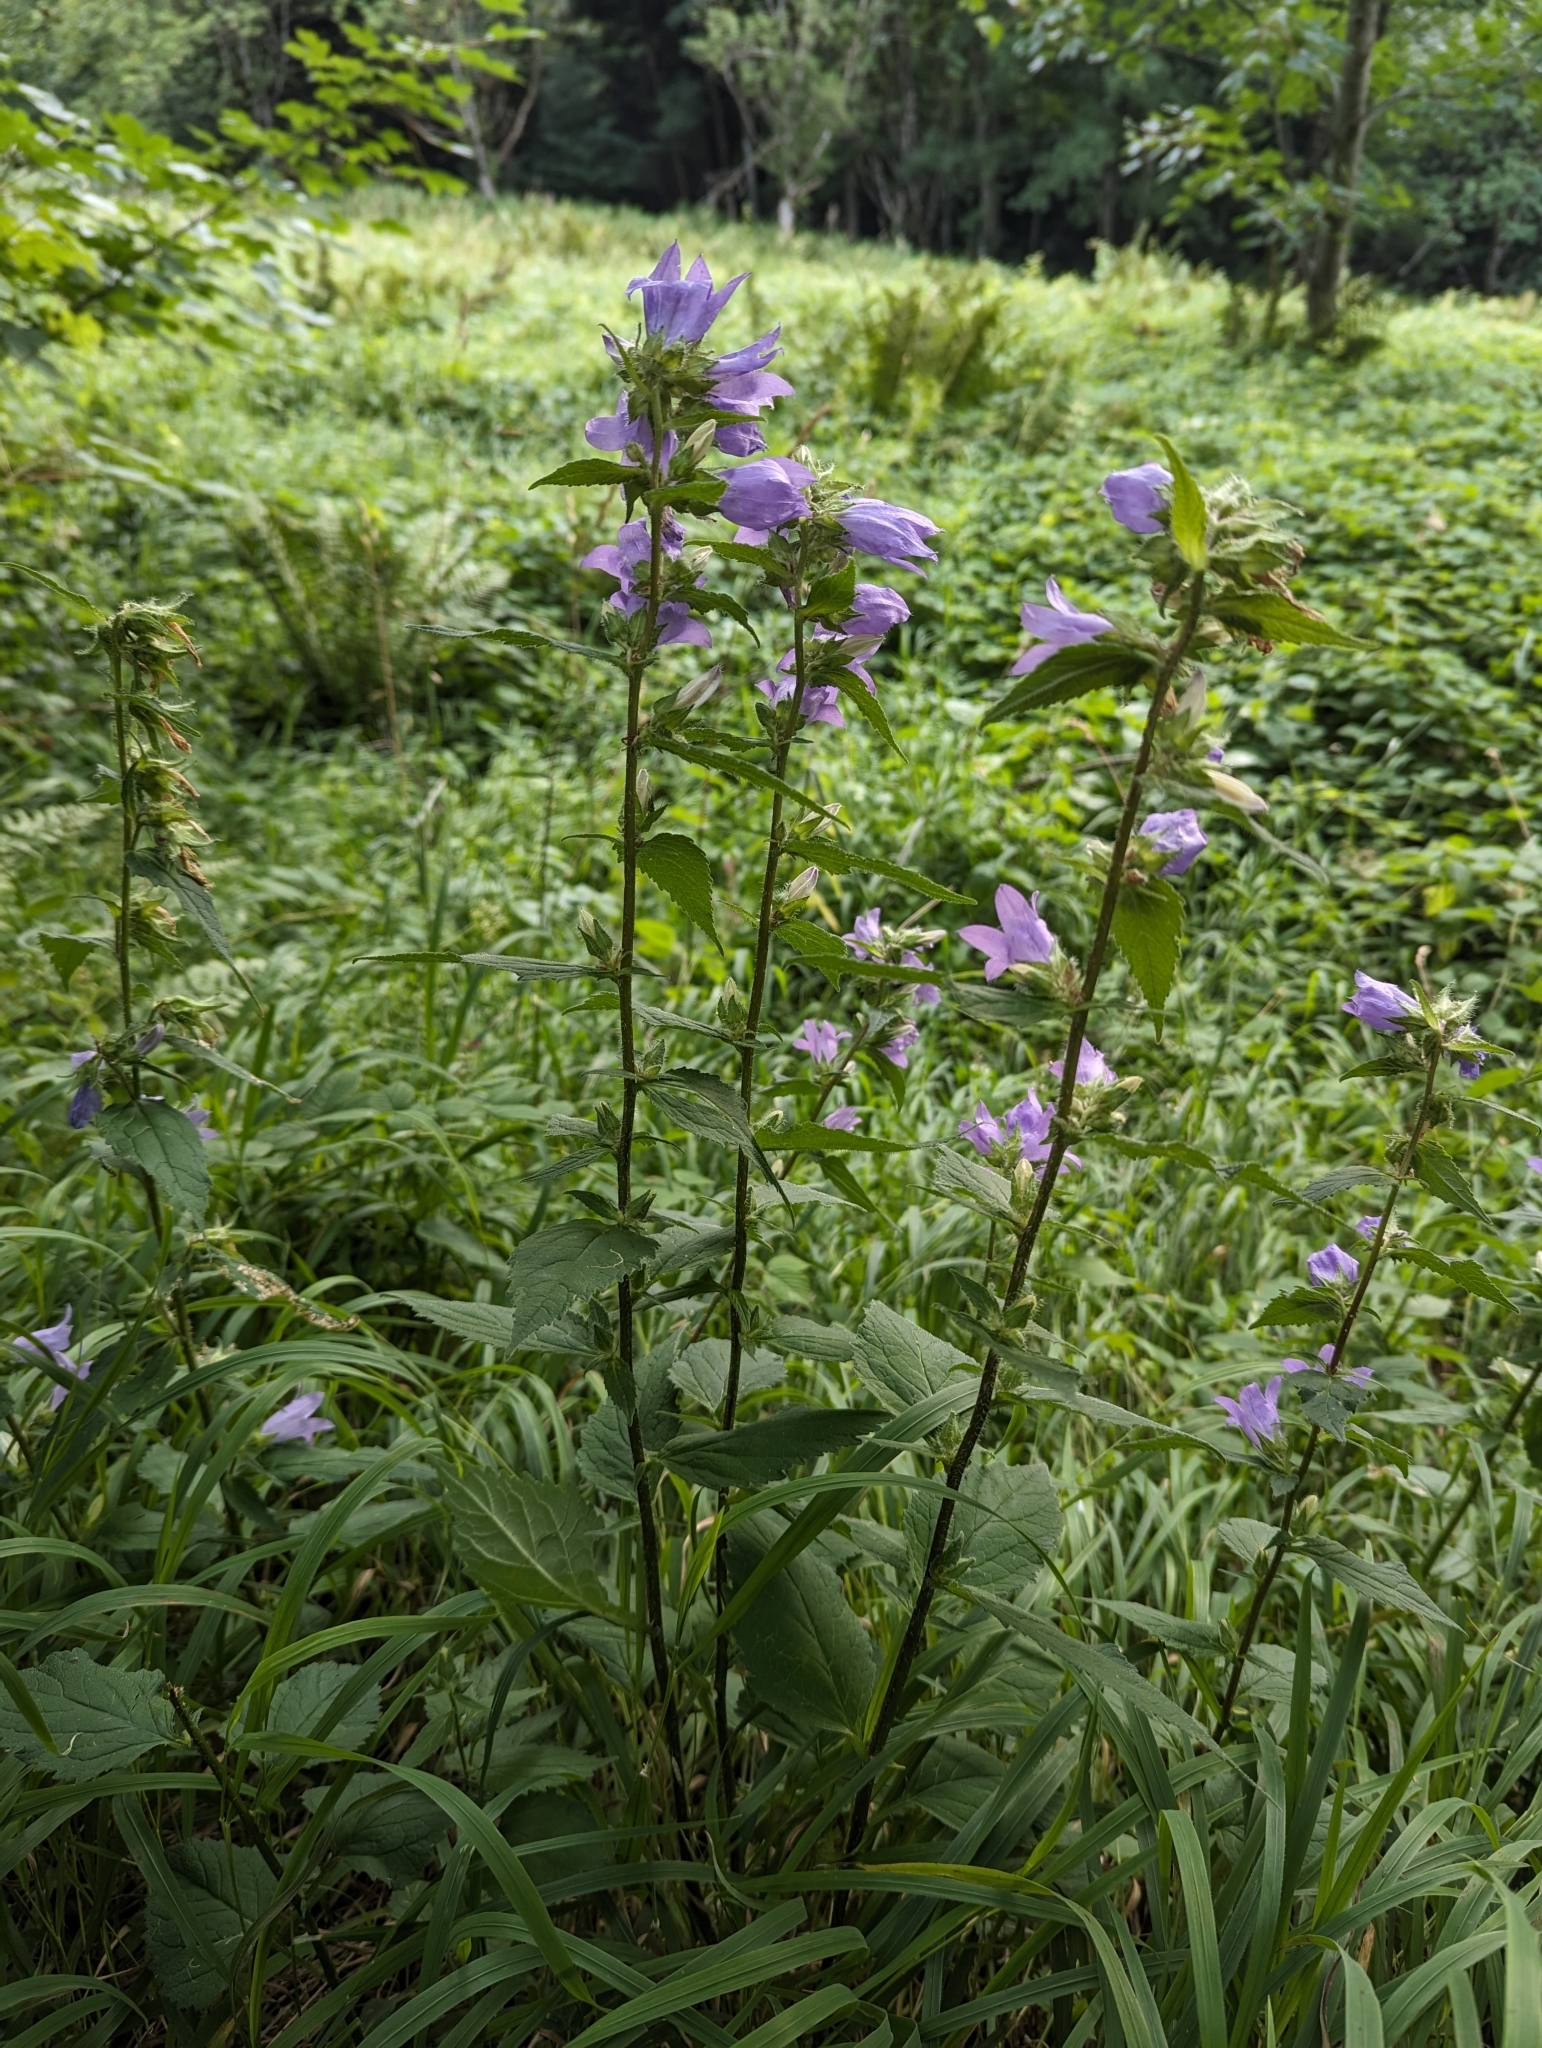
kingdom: Plantae
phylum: Tracheophyta
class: Magnoliopsida
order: Asterales
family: Campanulaceae
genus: Campanula
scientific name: Campanula trachelium
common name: Nettle-leaved bellflower
